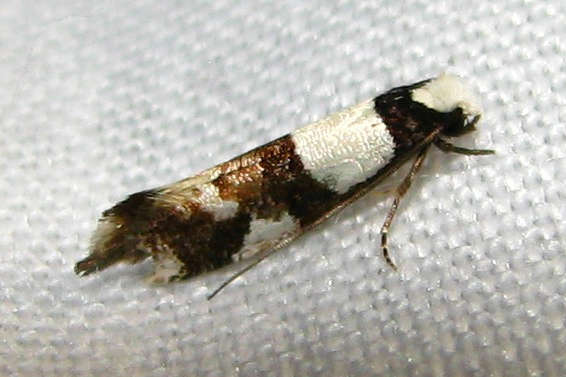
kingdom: Animalia
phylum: Arthropoda
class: Insecta
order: Lepidoptera
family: Tineidae
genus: Monopis
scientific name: Monopis icterogastra
